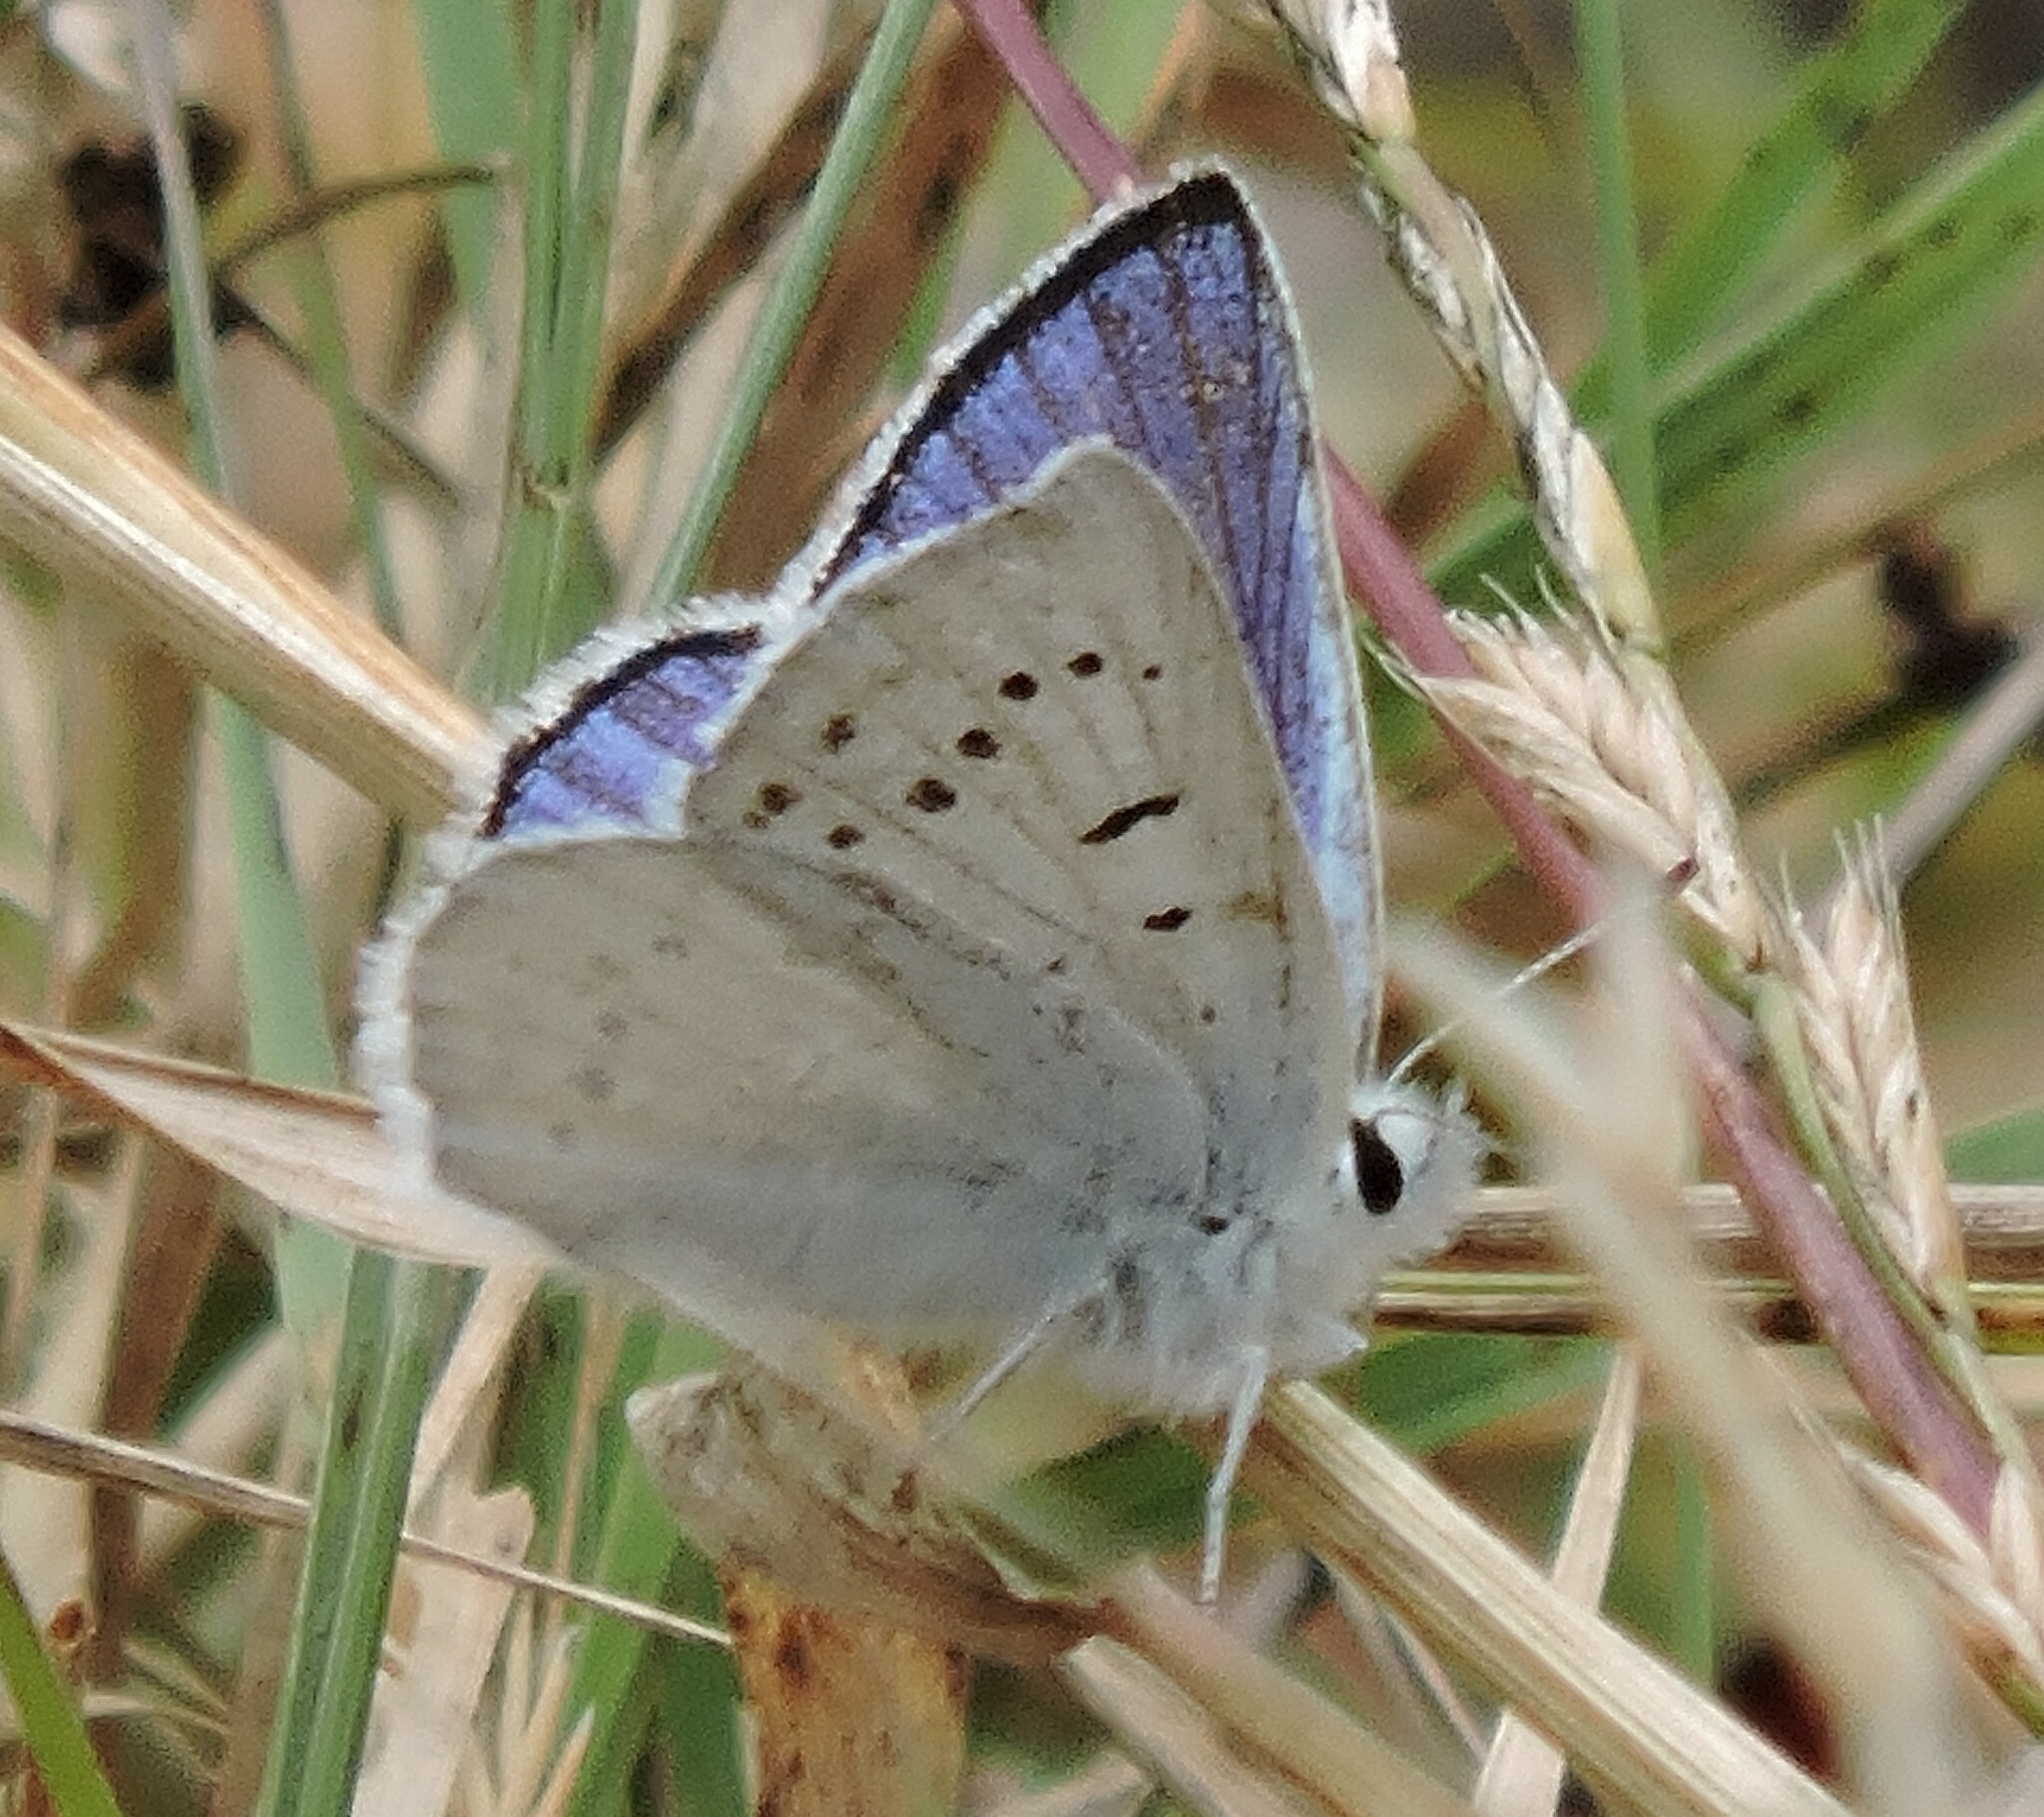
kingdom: Animalia
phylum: Arthropoda
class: Insecta
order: Lepidoptera
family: Lycaenidae
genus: Tharsalea
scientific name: Tharsalea heteronea
